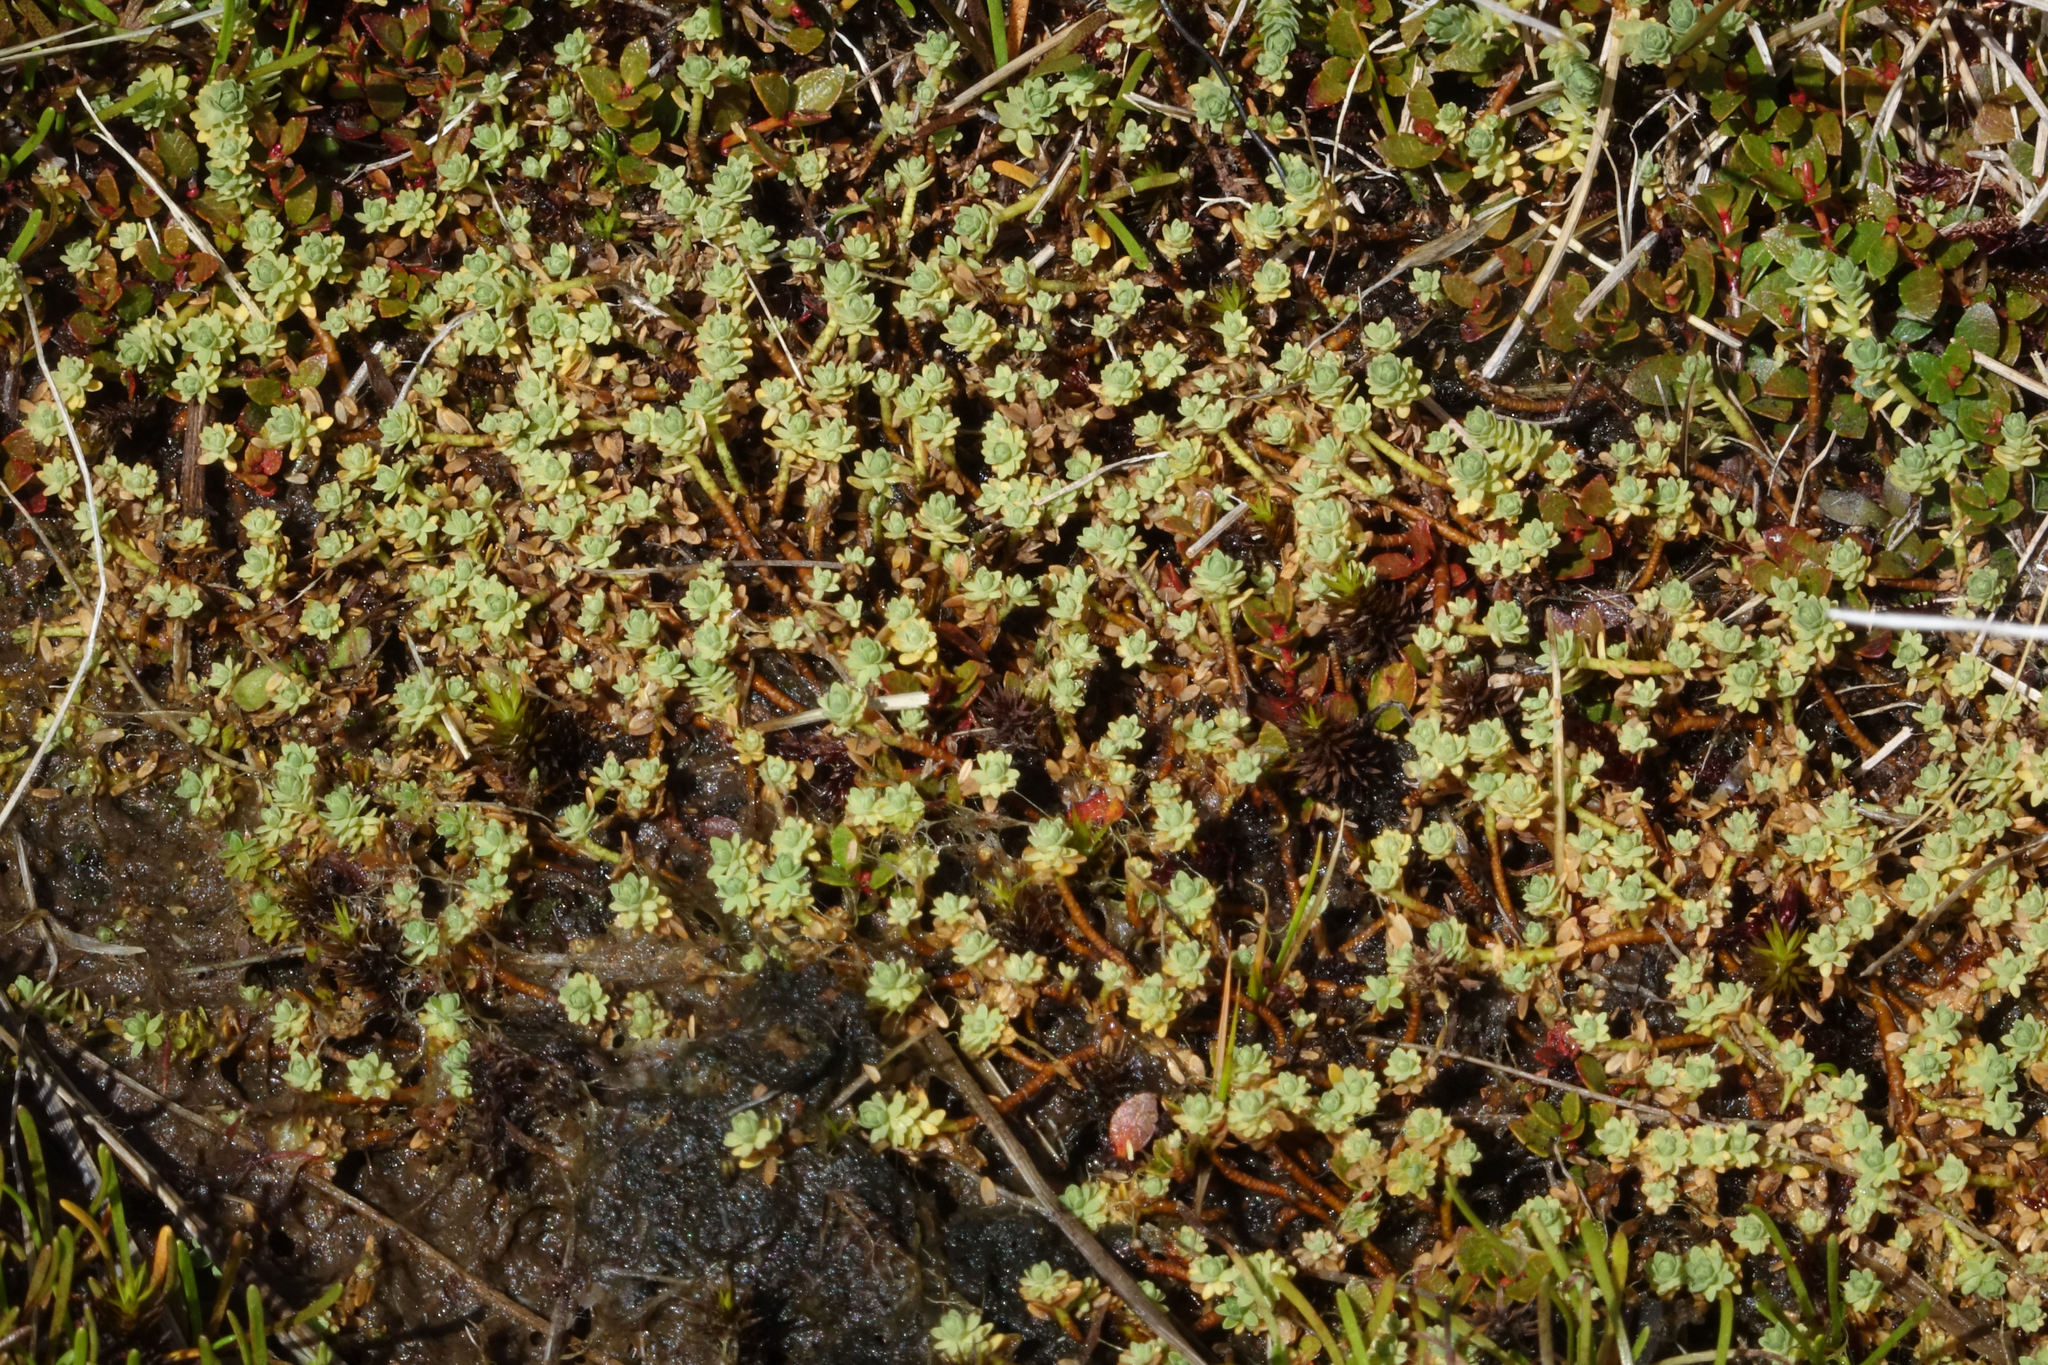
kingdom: Plantae
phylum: Tracheophyta
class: Magnoliopsida
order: Malvales
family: Thymelaeaceae
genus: Kelleria
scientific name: Kelleria paludosa
